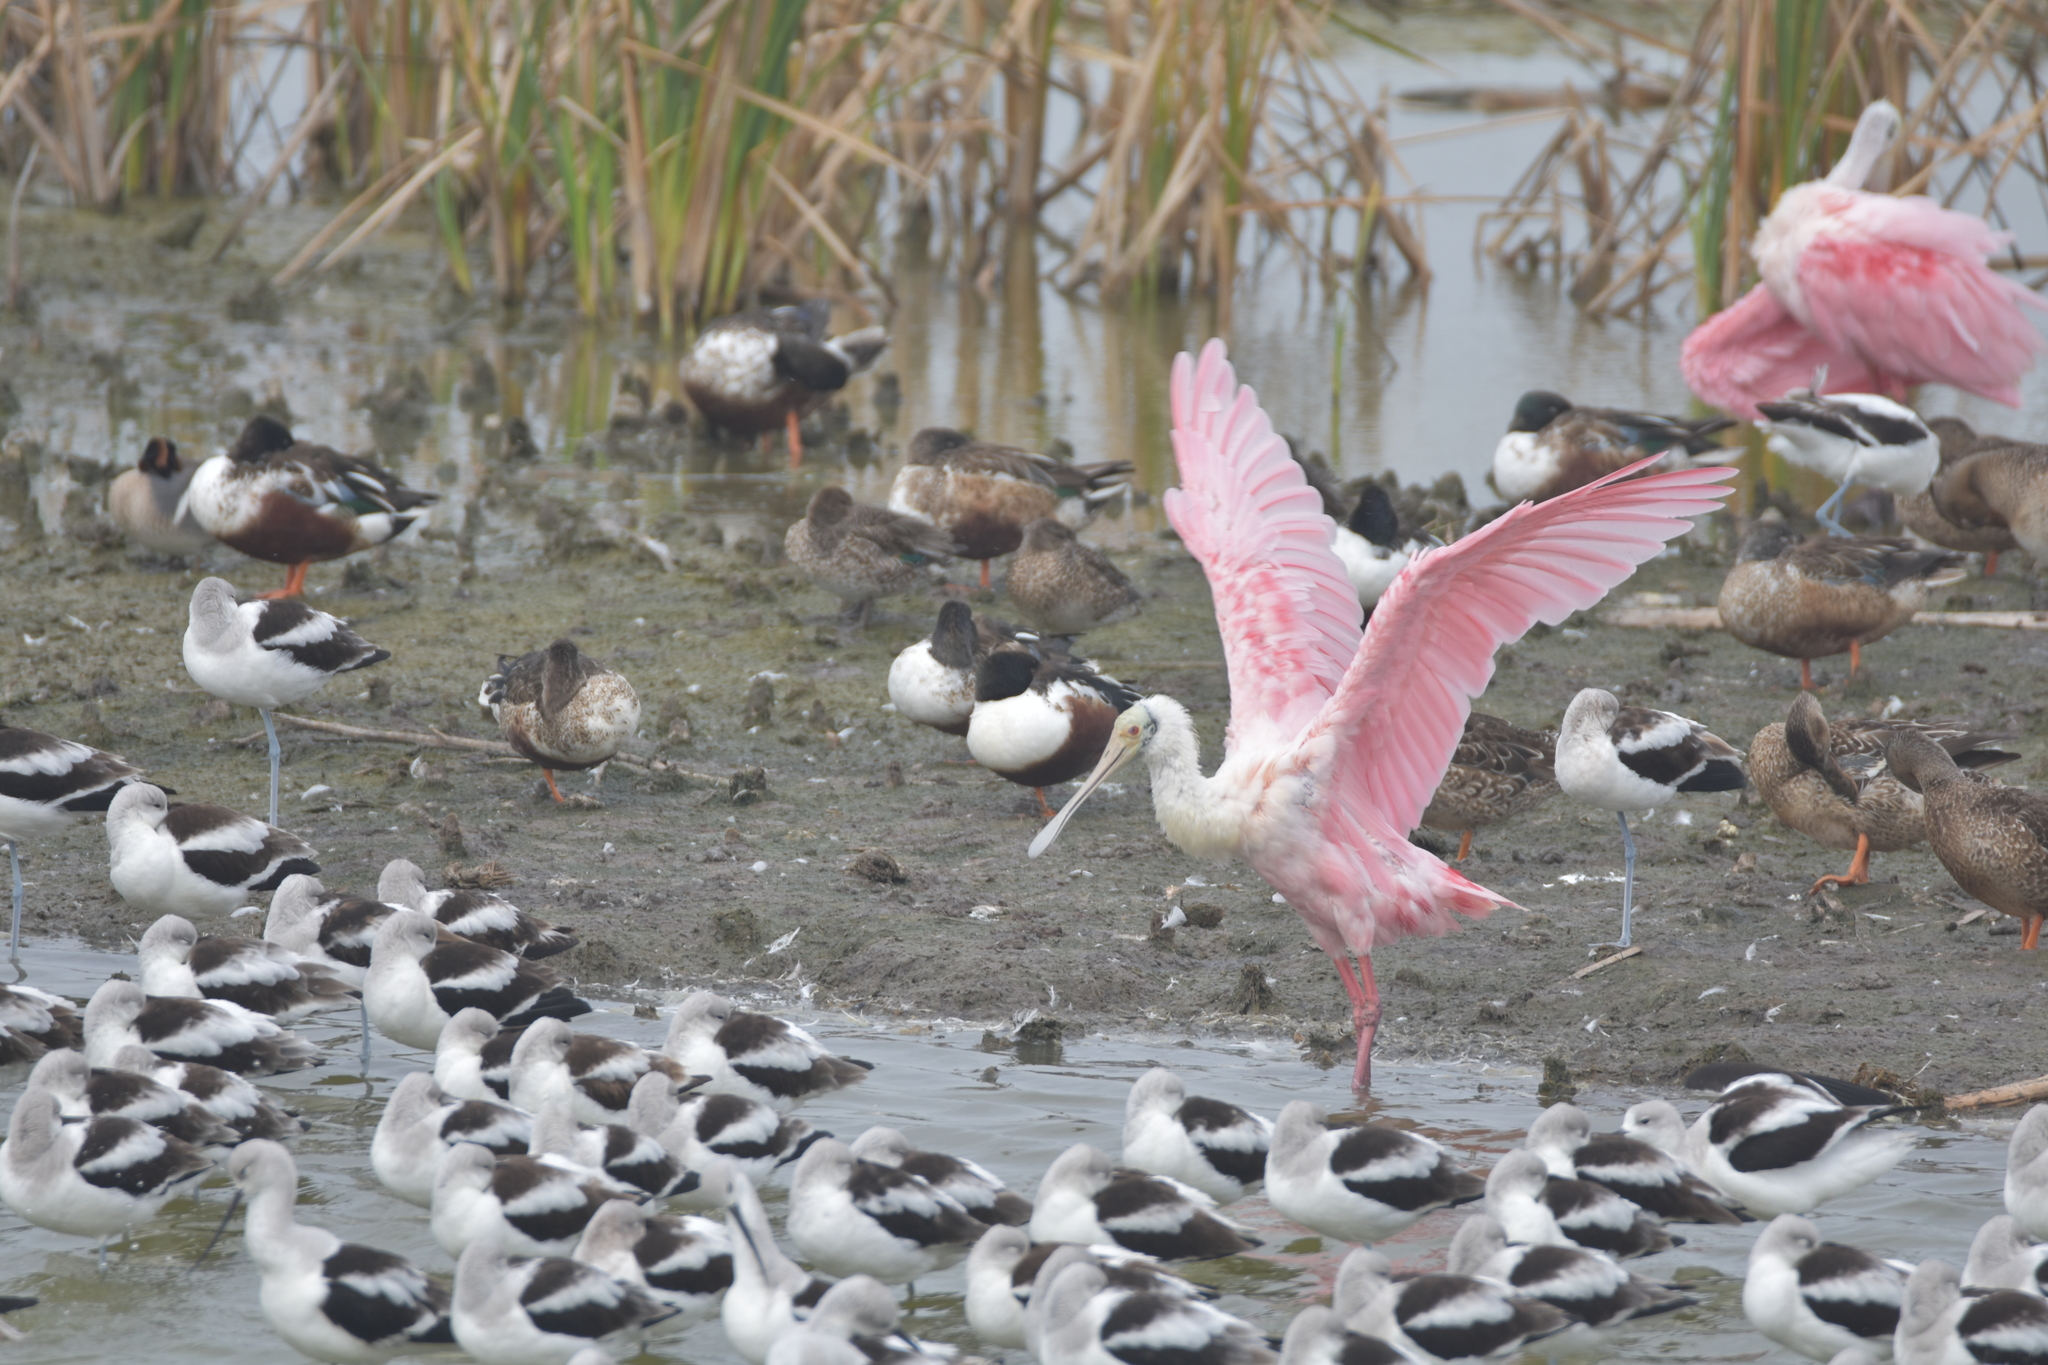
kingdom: Animalia
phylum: Chordata
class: Aves
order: Pelecaniformes
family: Threskiornithidae
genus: Platalea
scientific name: Platalea ajaja
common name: Roseate spoonbill
